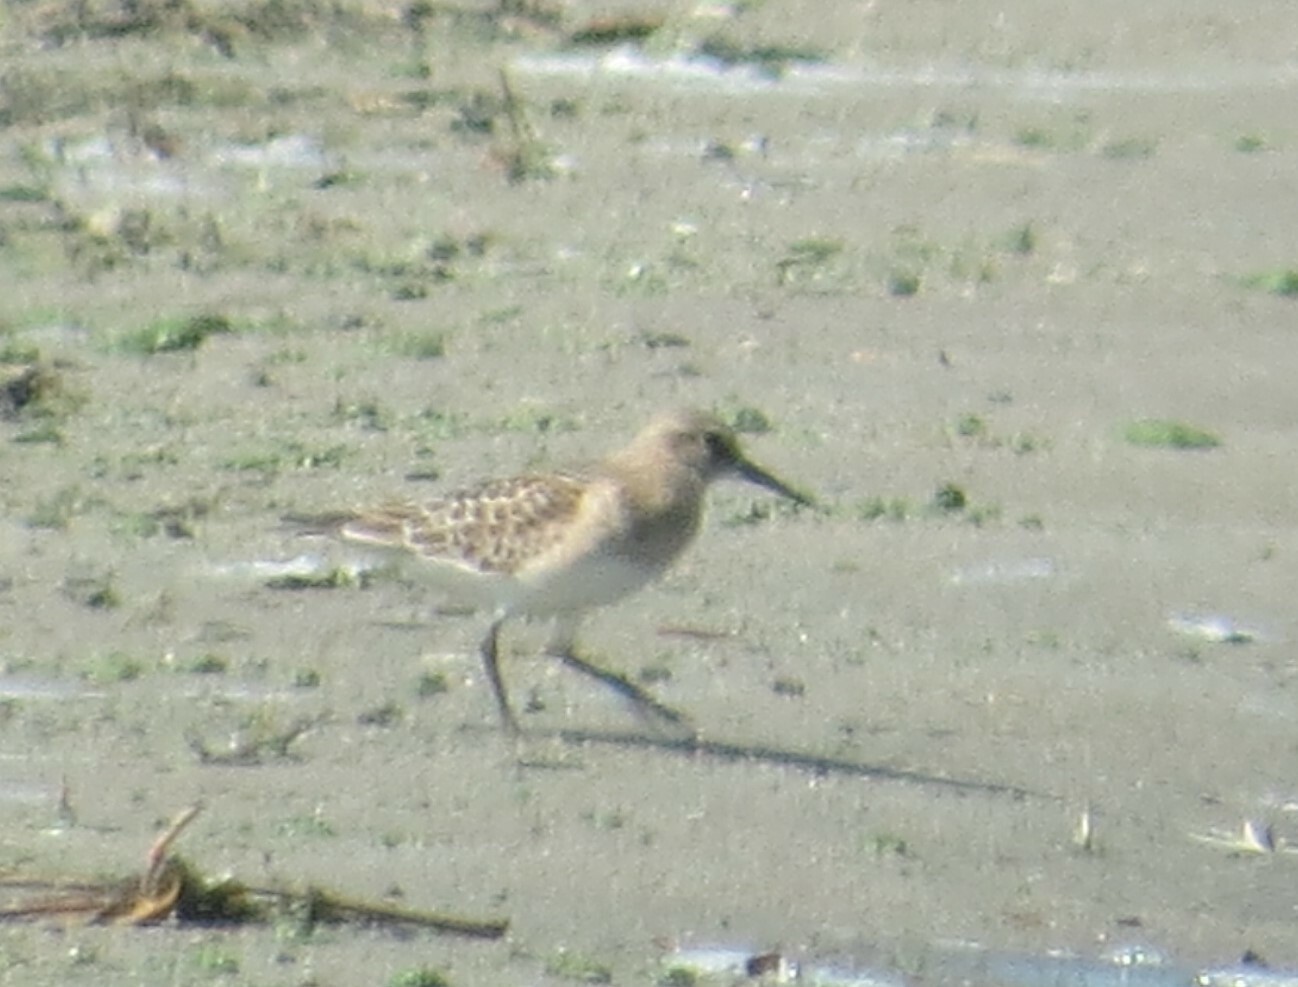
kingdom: Animalia
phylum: Chordata
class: Aves
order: Charadriiformes
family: Scolopacidae
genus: Calidris
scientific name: Calidris bairdii
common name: Baird's sandpiper
